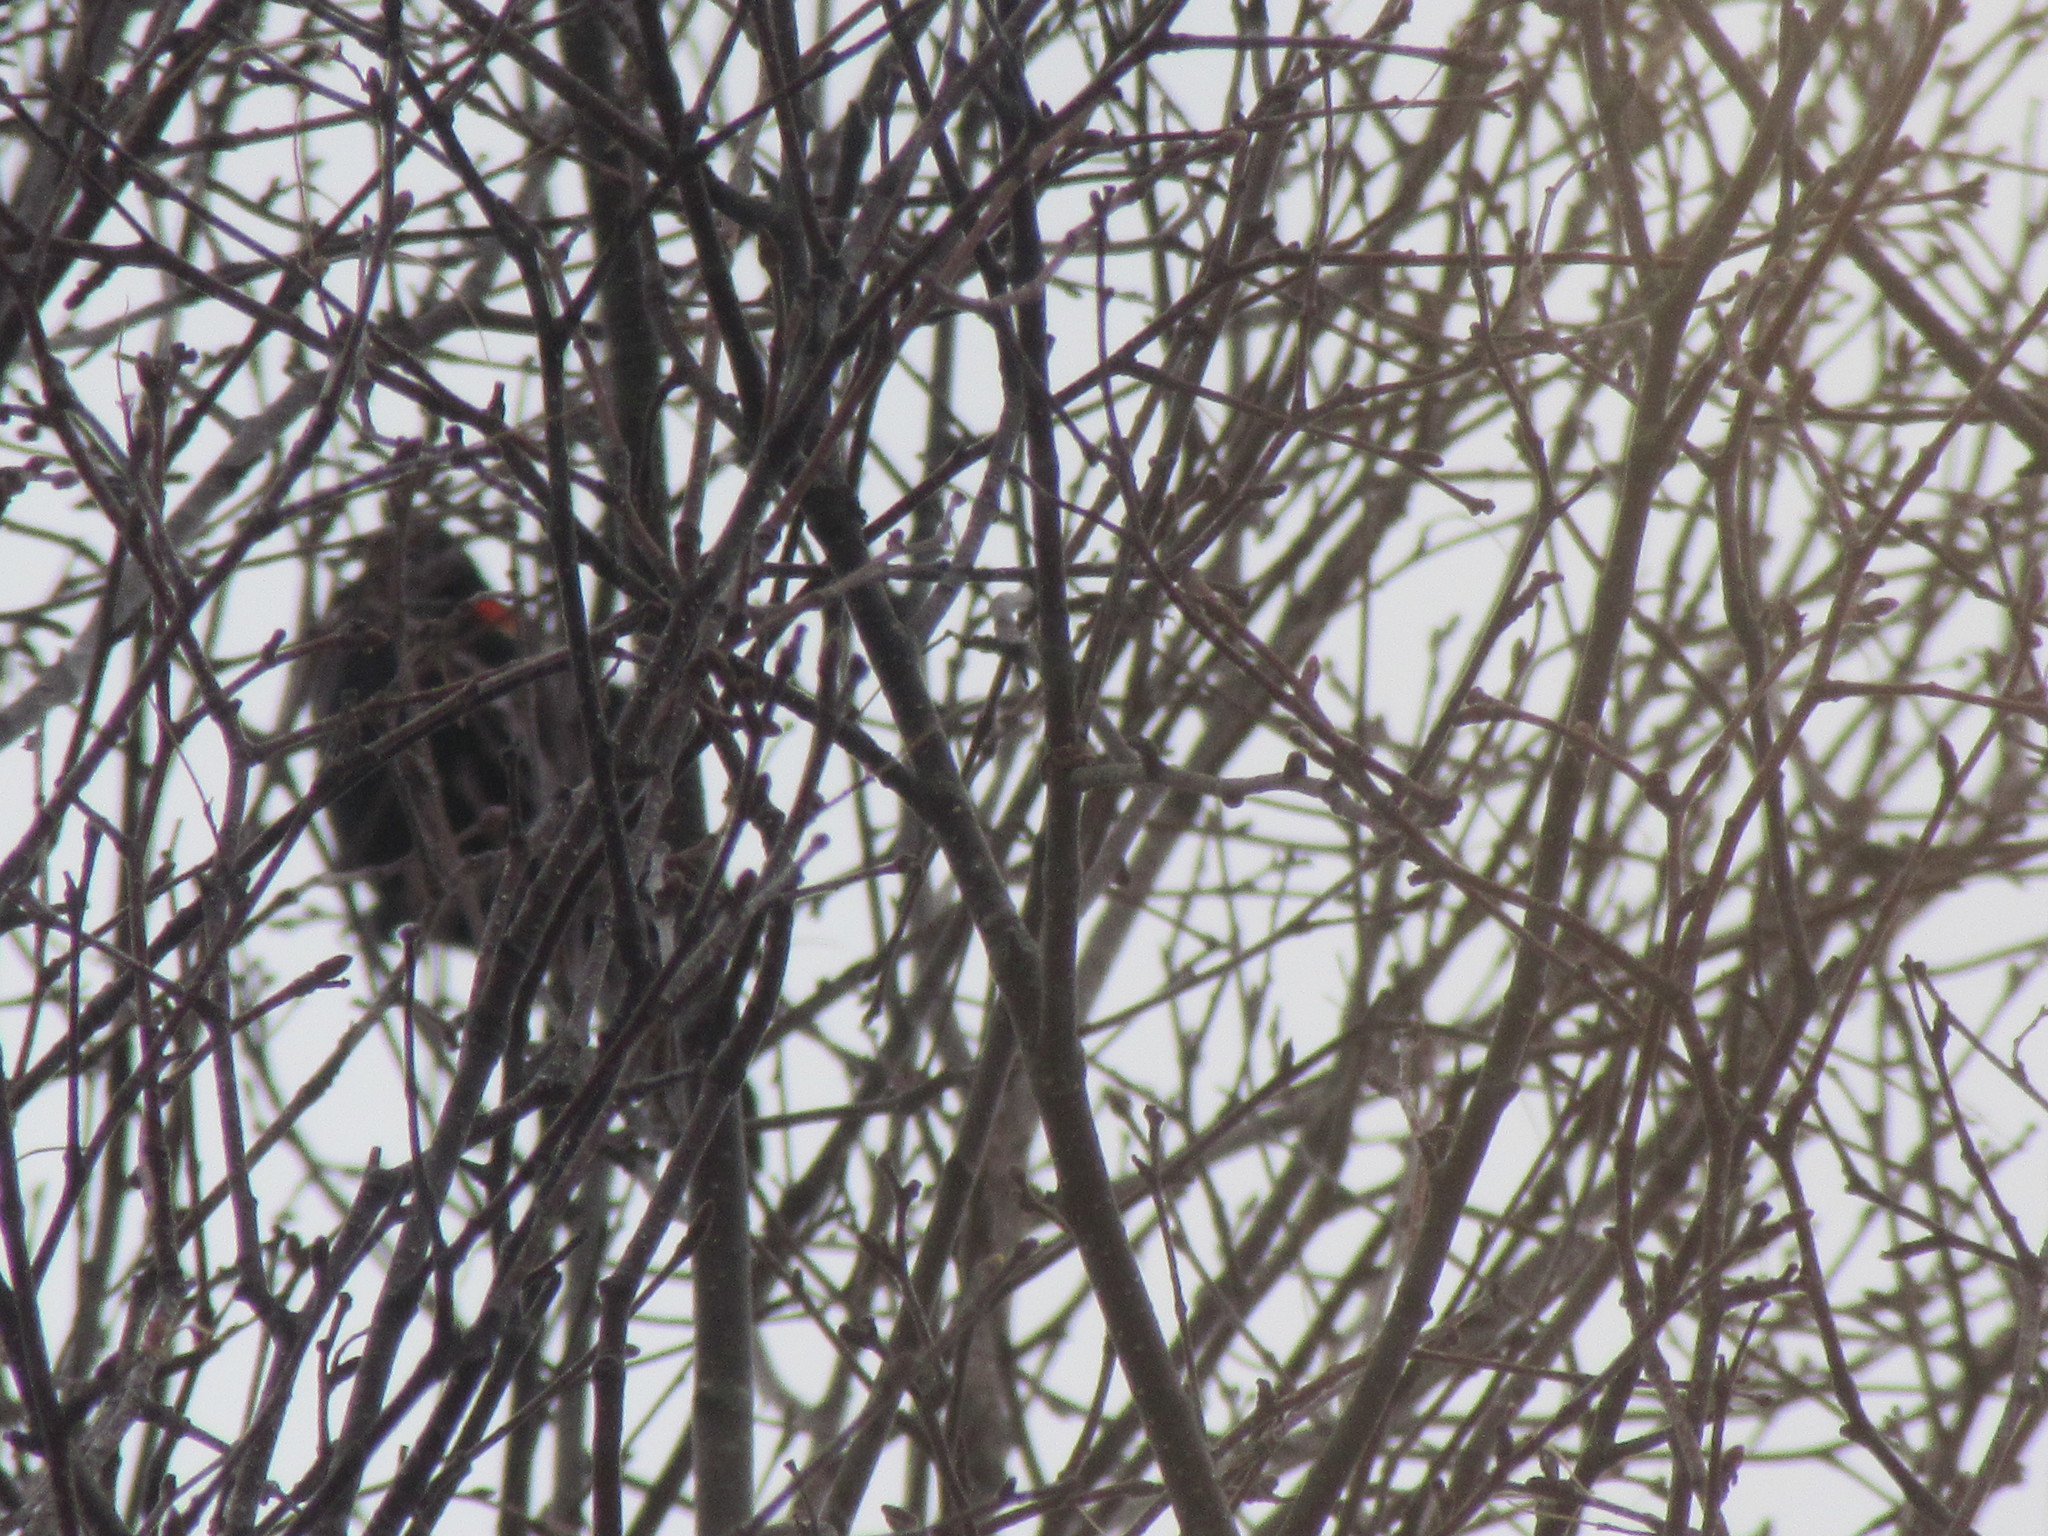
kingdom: Animalia
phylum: Chordata
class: Aves
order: Passeriformes
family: Icteridae
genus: Agelaius
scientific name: Agelaius phoeniceus
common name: Red-winged blackbird
